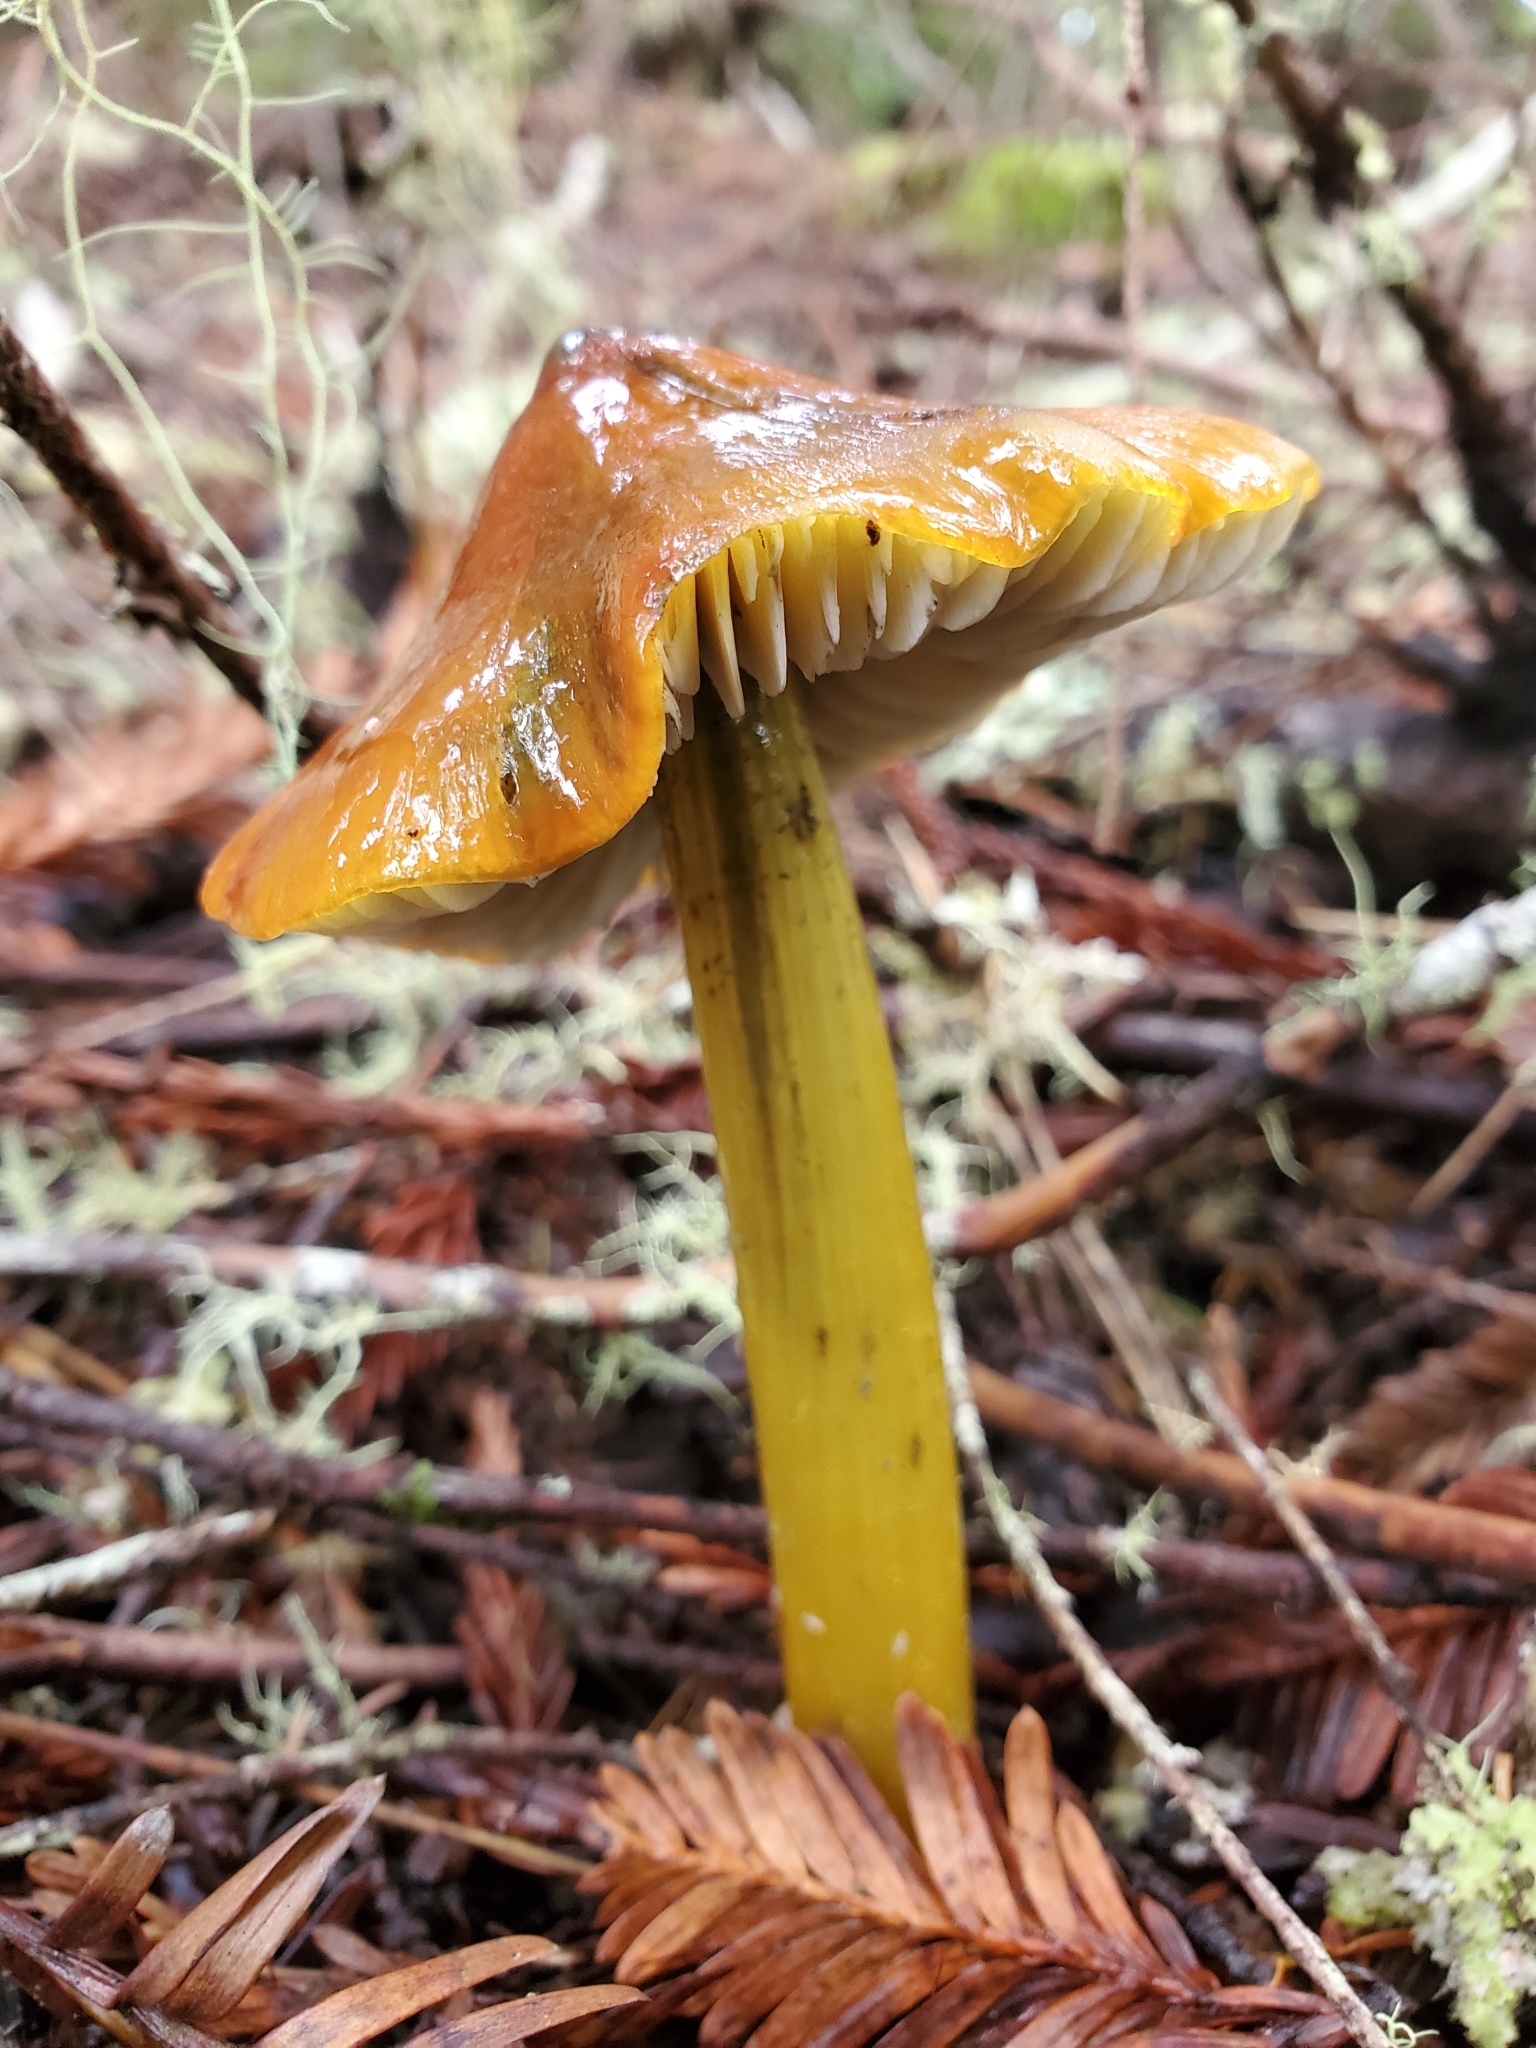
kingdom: Fungi
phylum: Basidiomycota
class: Agaricomycetes
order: Agaricales
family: Hygrophoraceae
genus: Hygrocybe
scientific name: Hygrocybe singeri
